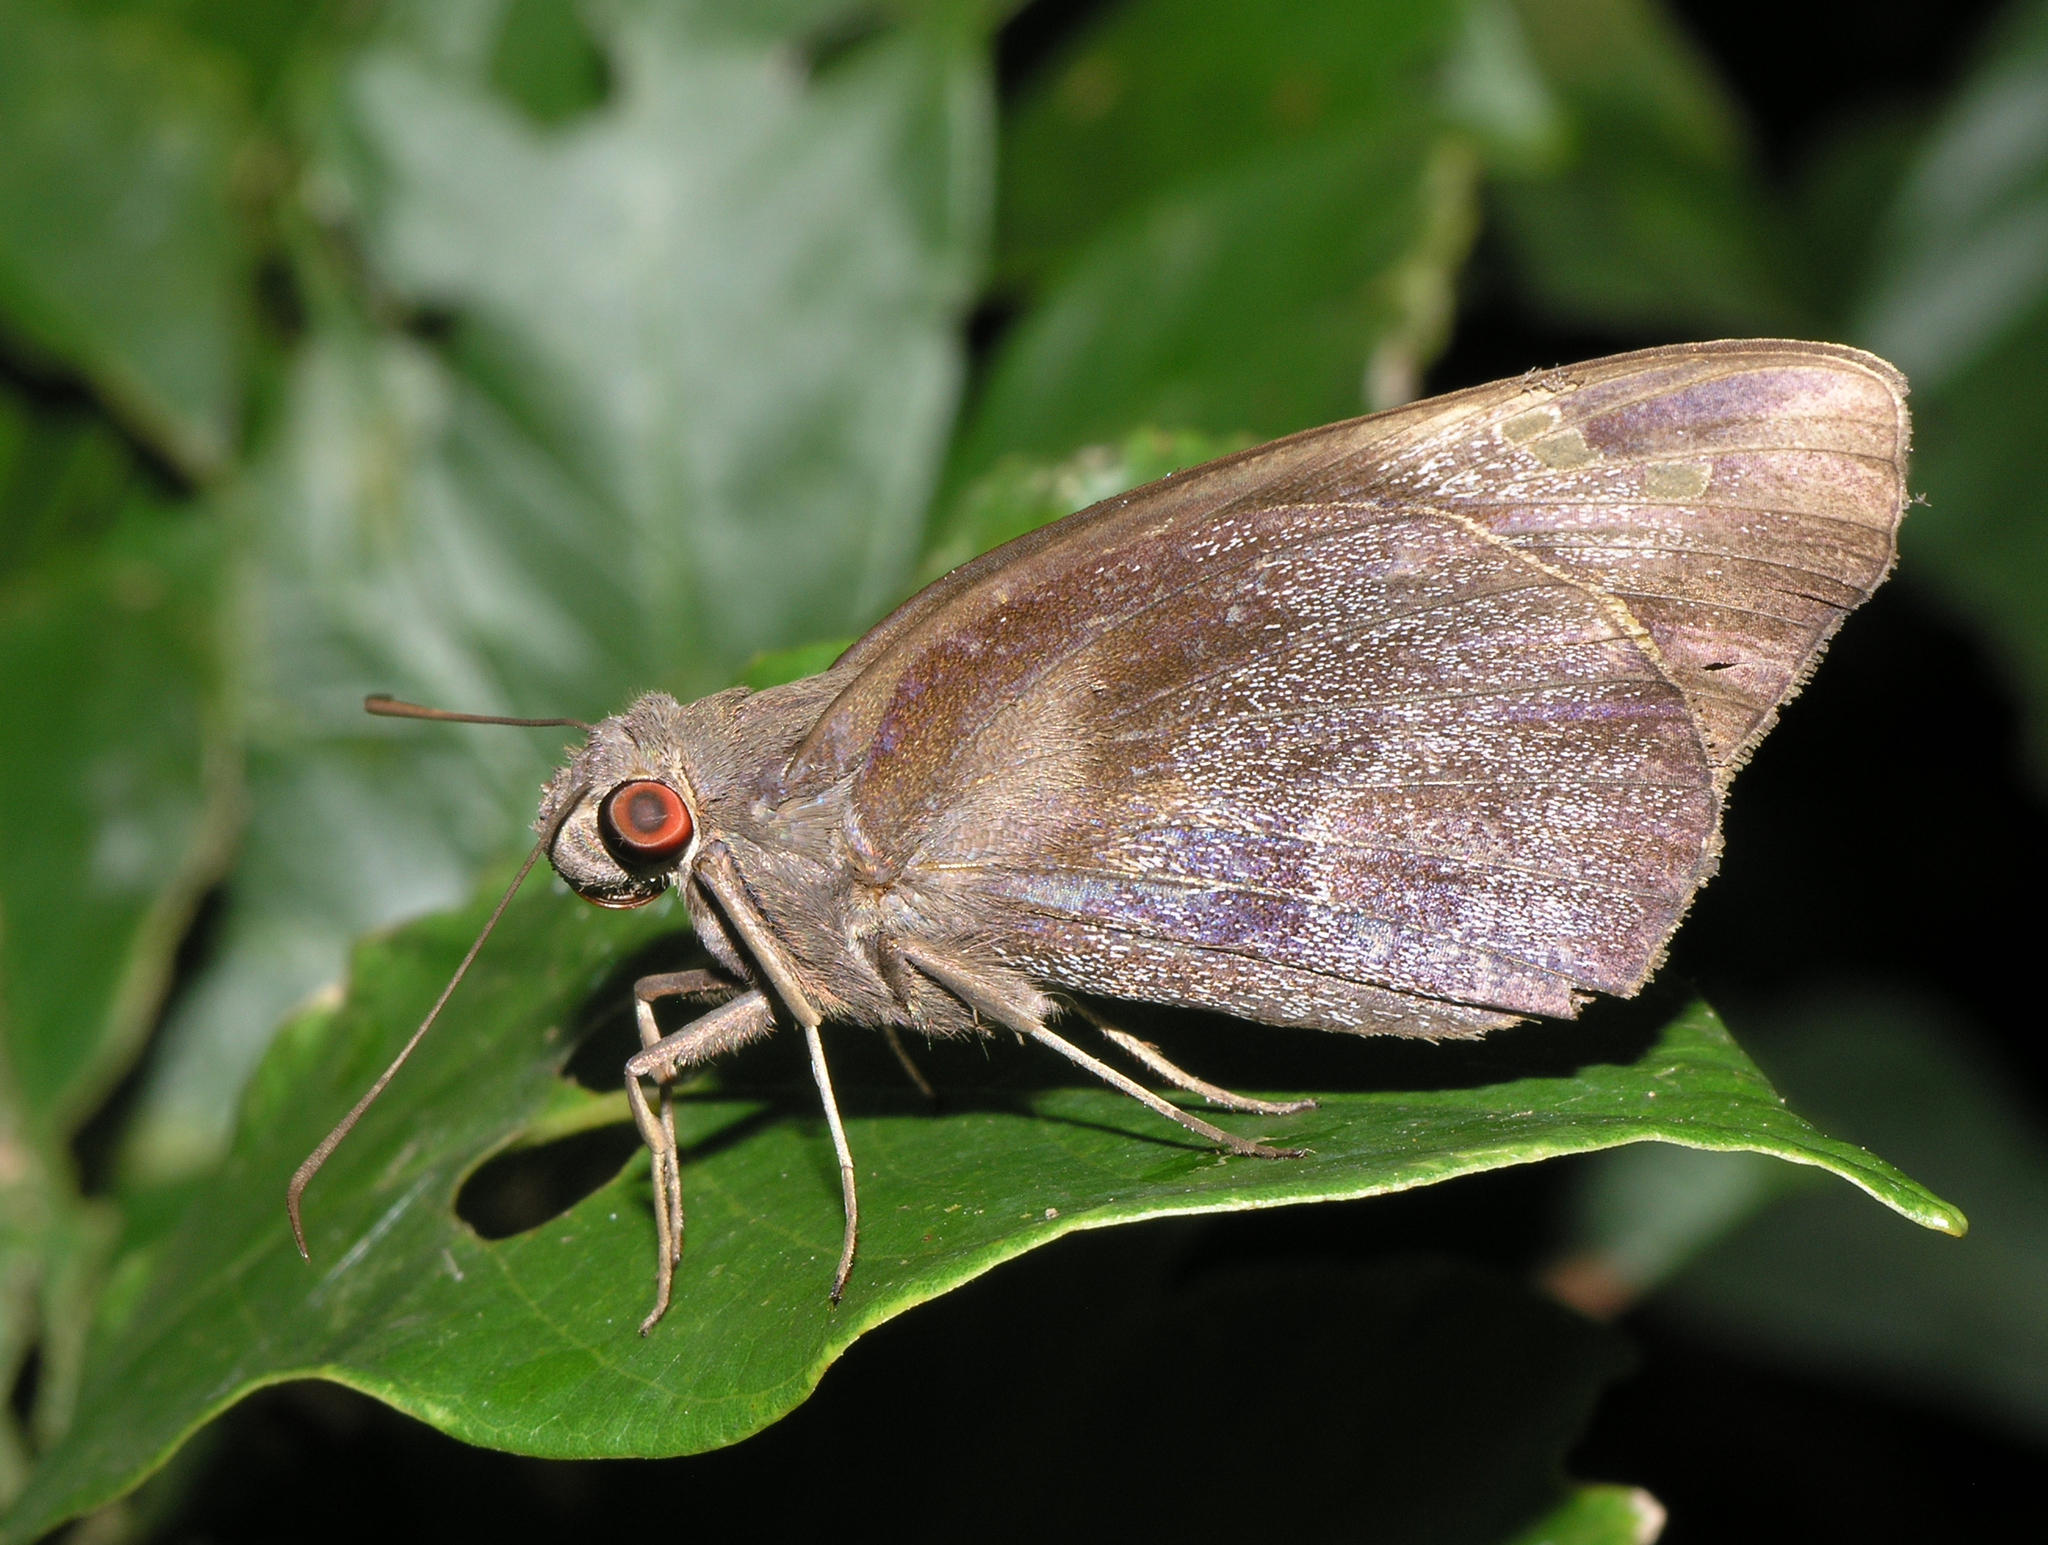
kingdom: Animalia
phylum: Arthropoda
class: Insecta
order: Lepidoptera
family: Hesperiidae
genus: Gangara
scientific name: Gangara thyrsis
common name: Giant redeye
